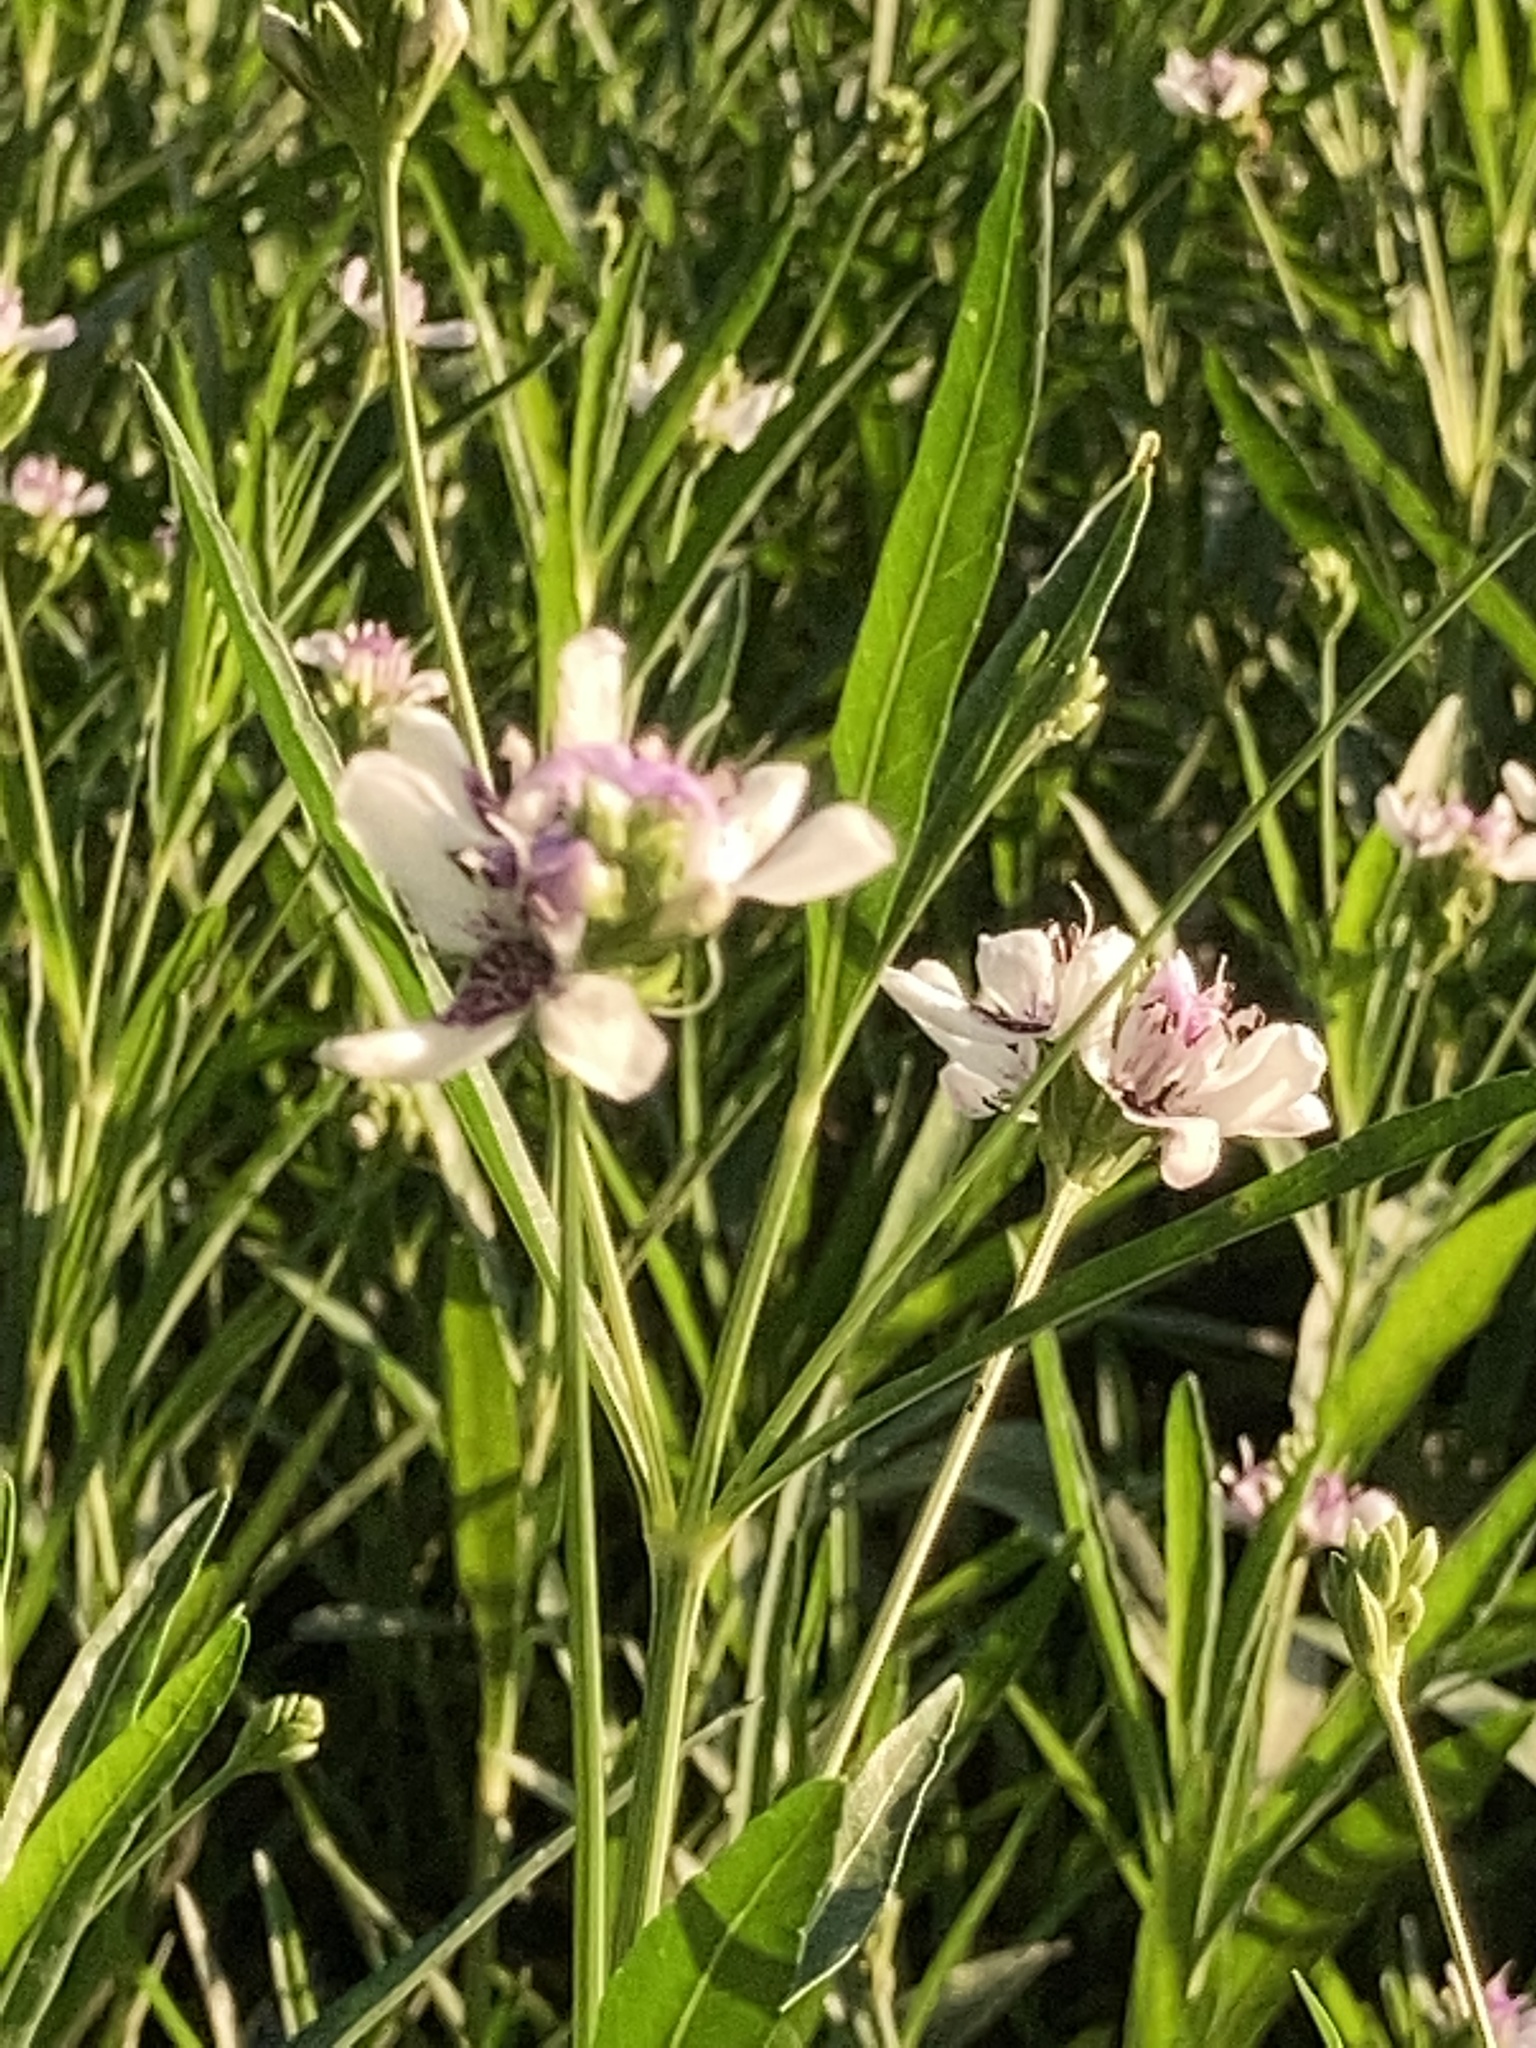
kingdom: Plantae
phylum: Tracheophyta
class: Magnoliopsida
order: Lamiales
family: Acanthaceae
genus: Dianthera
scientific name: Dianthera americana
